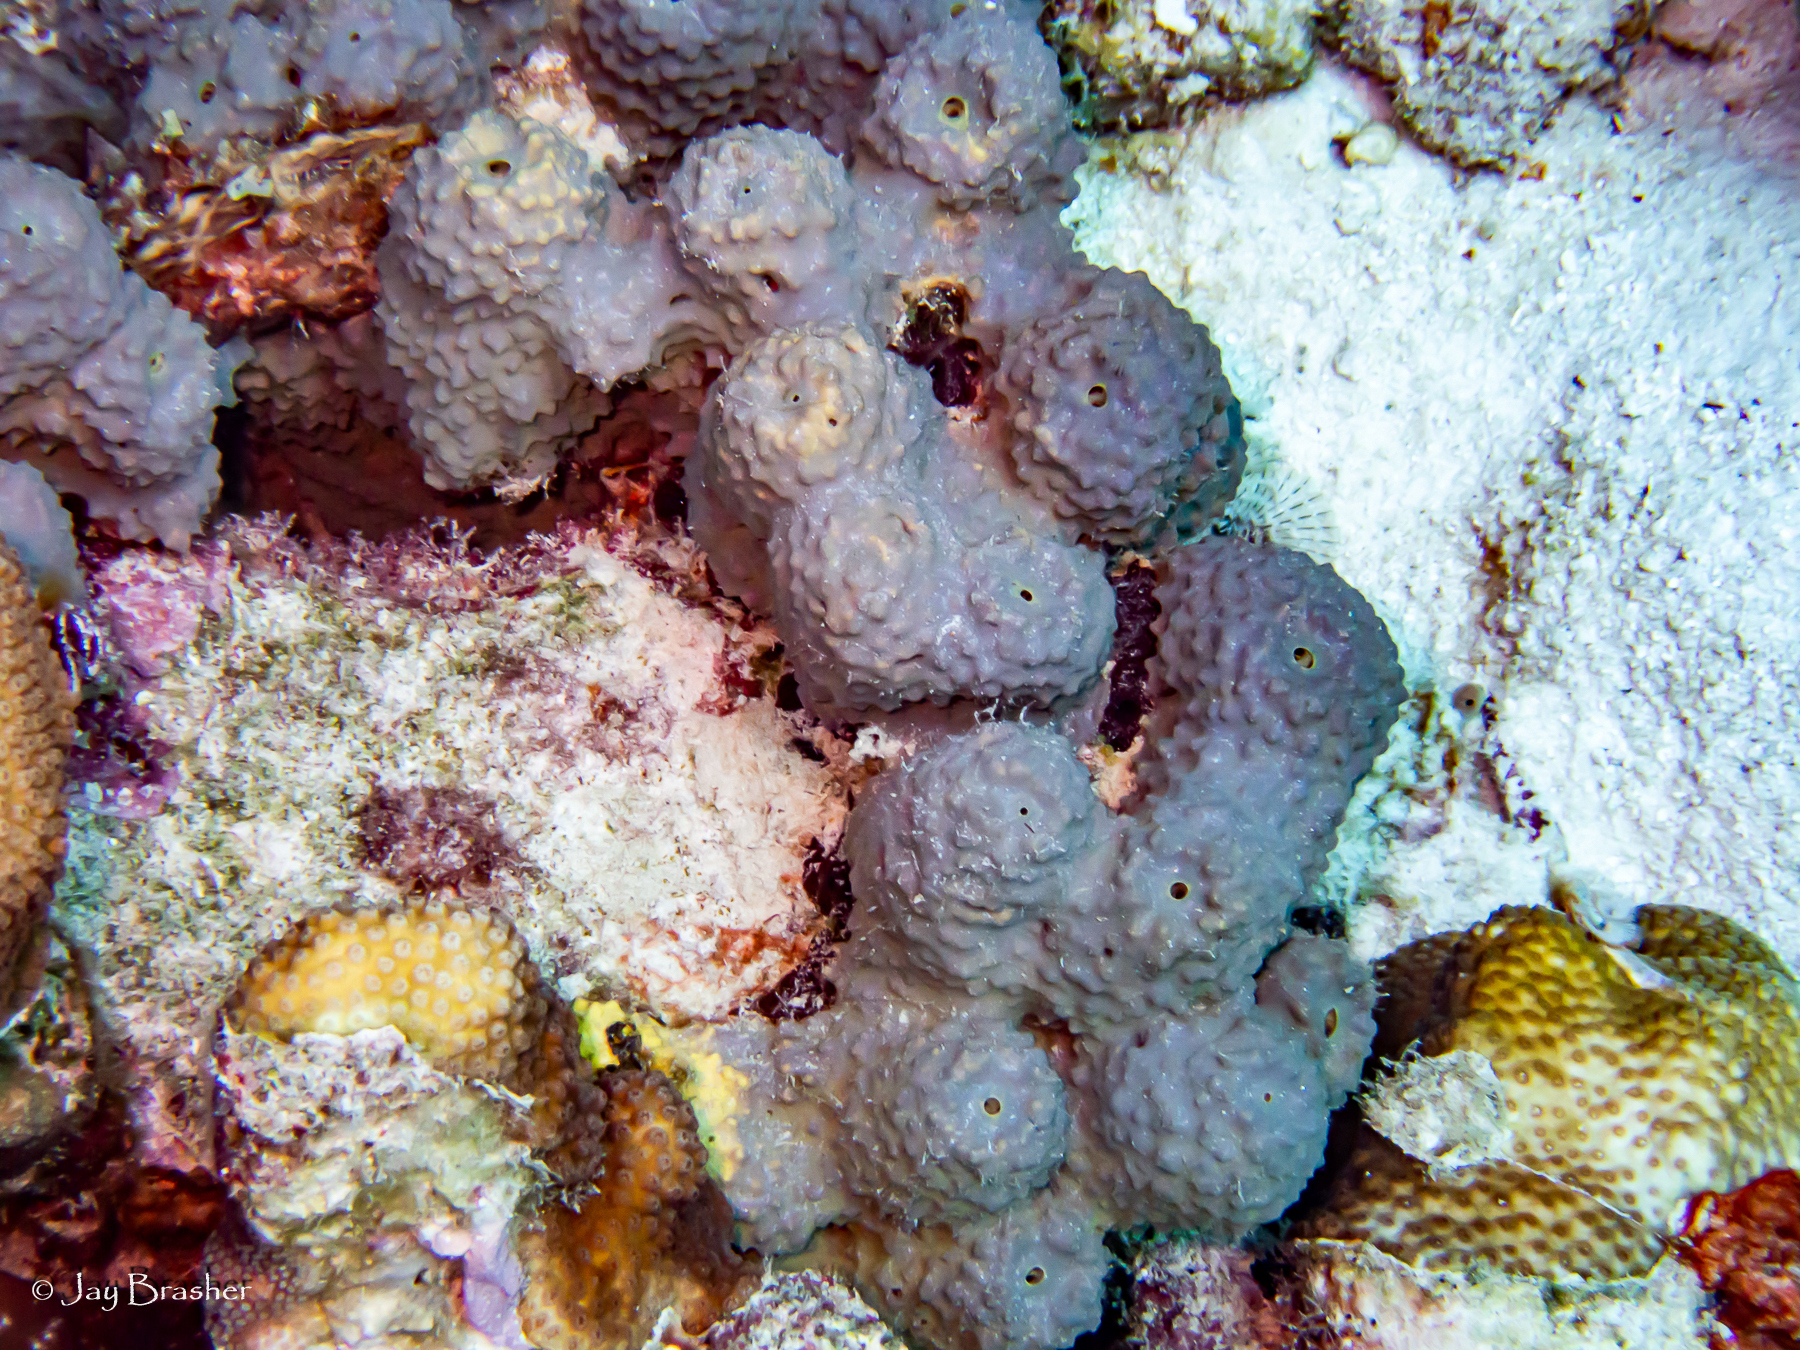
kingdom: Animalia
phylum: Porifera
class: Demospongiae
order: Verongiida
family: Aplysinidae
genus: Aiolochroia
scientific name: Aiolochroia crassa
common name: Branching tube sponge
